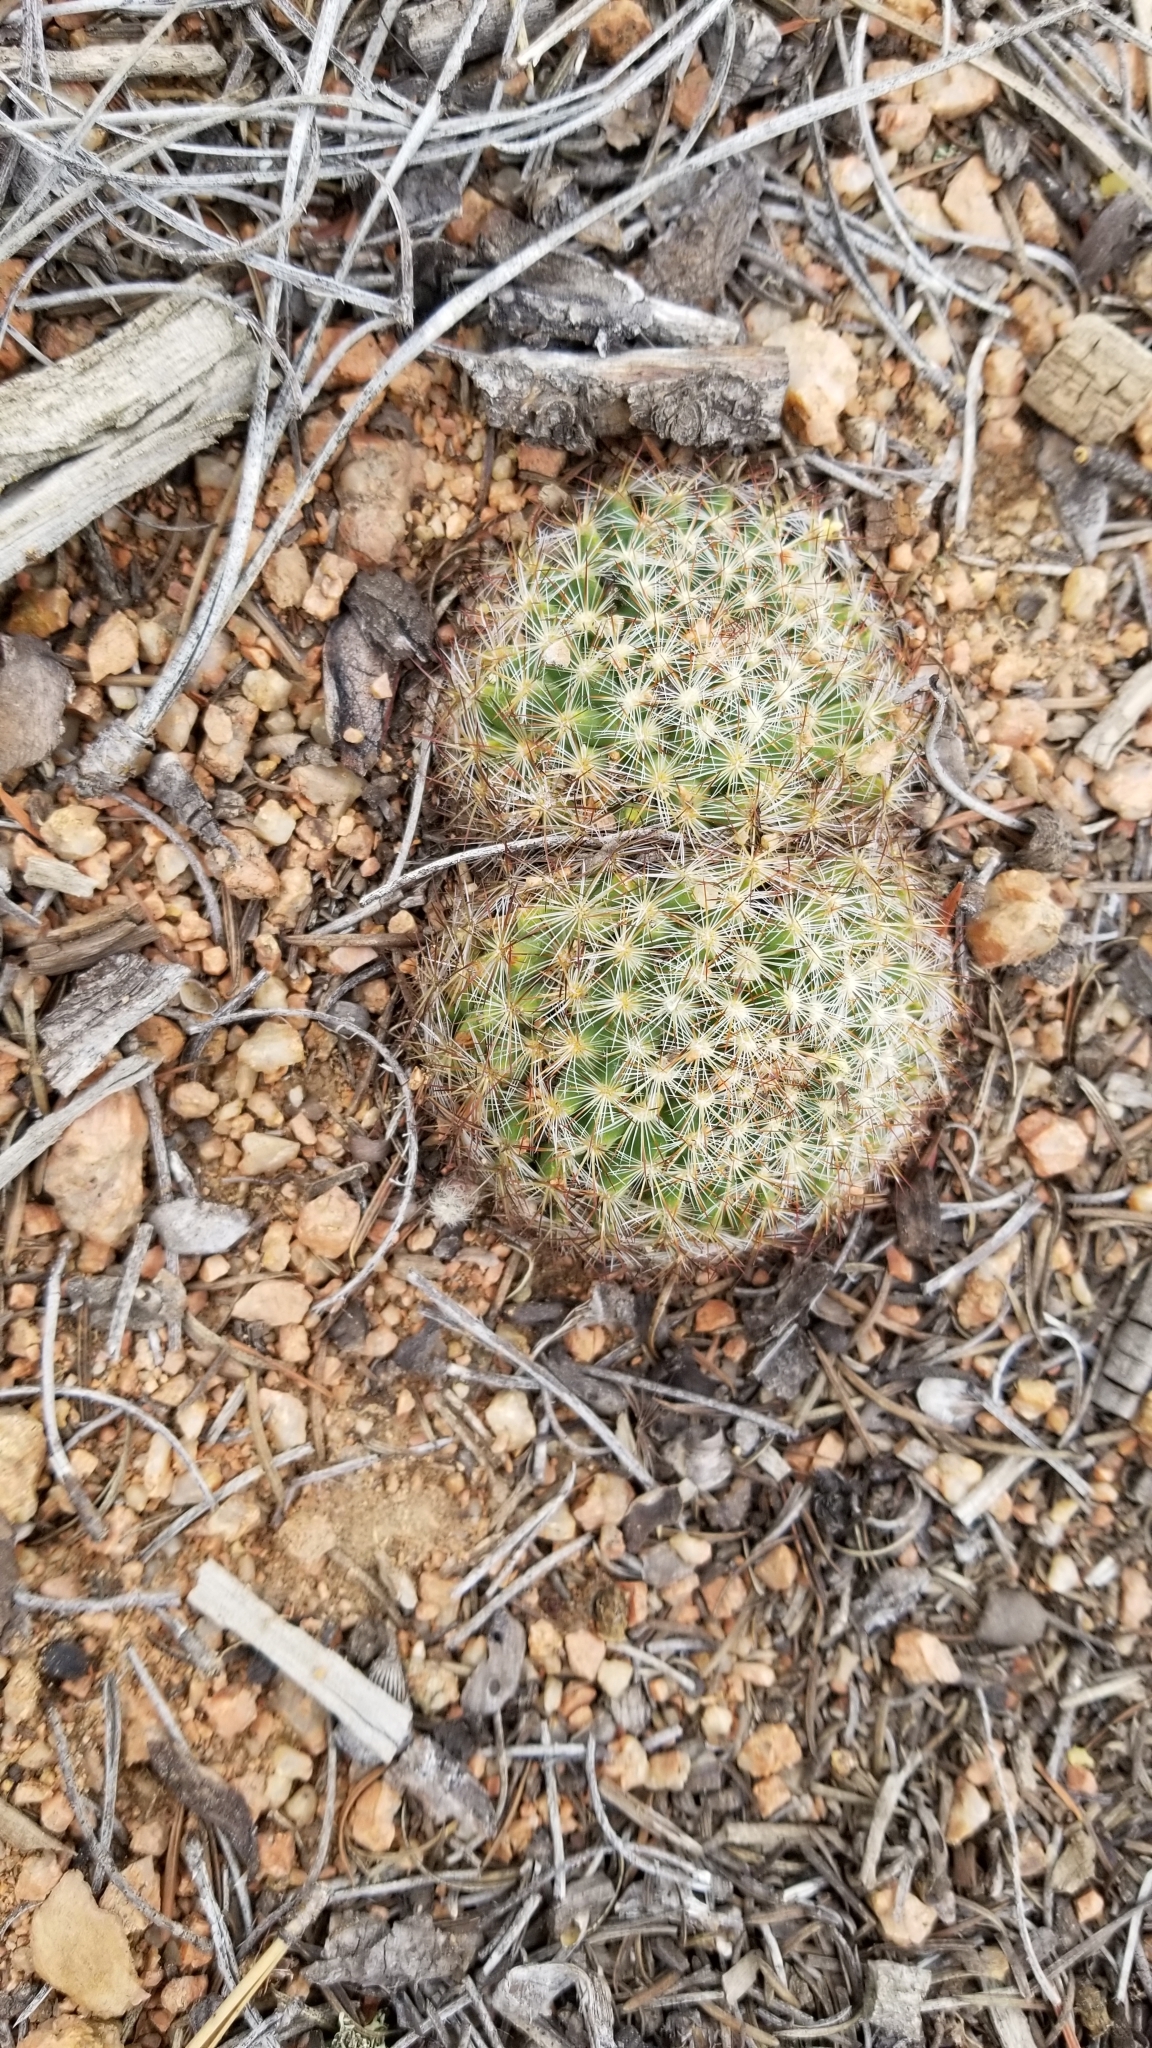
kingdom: Plantae
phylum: Tracheophyta
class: Magnoliopsida
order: Caryophyllales
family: Cactaceae
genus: Pediocactus
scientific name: Pediocactus simpsonii
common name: Simpson's hedgehog cactus
